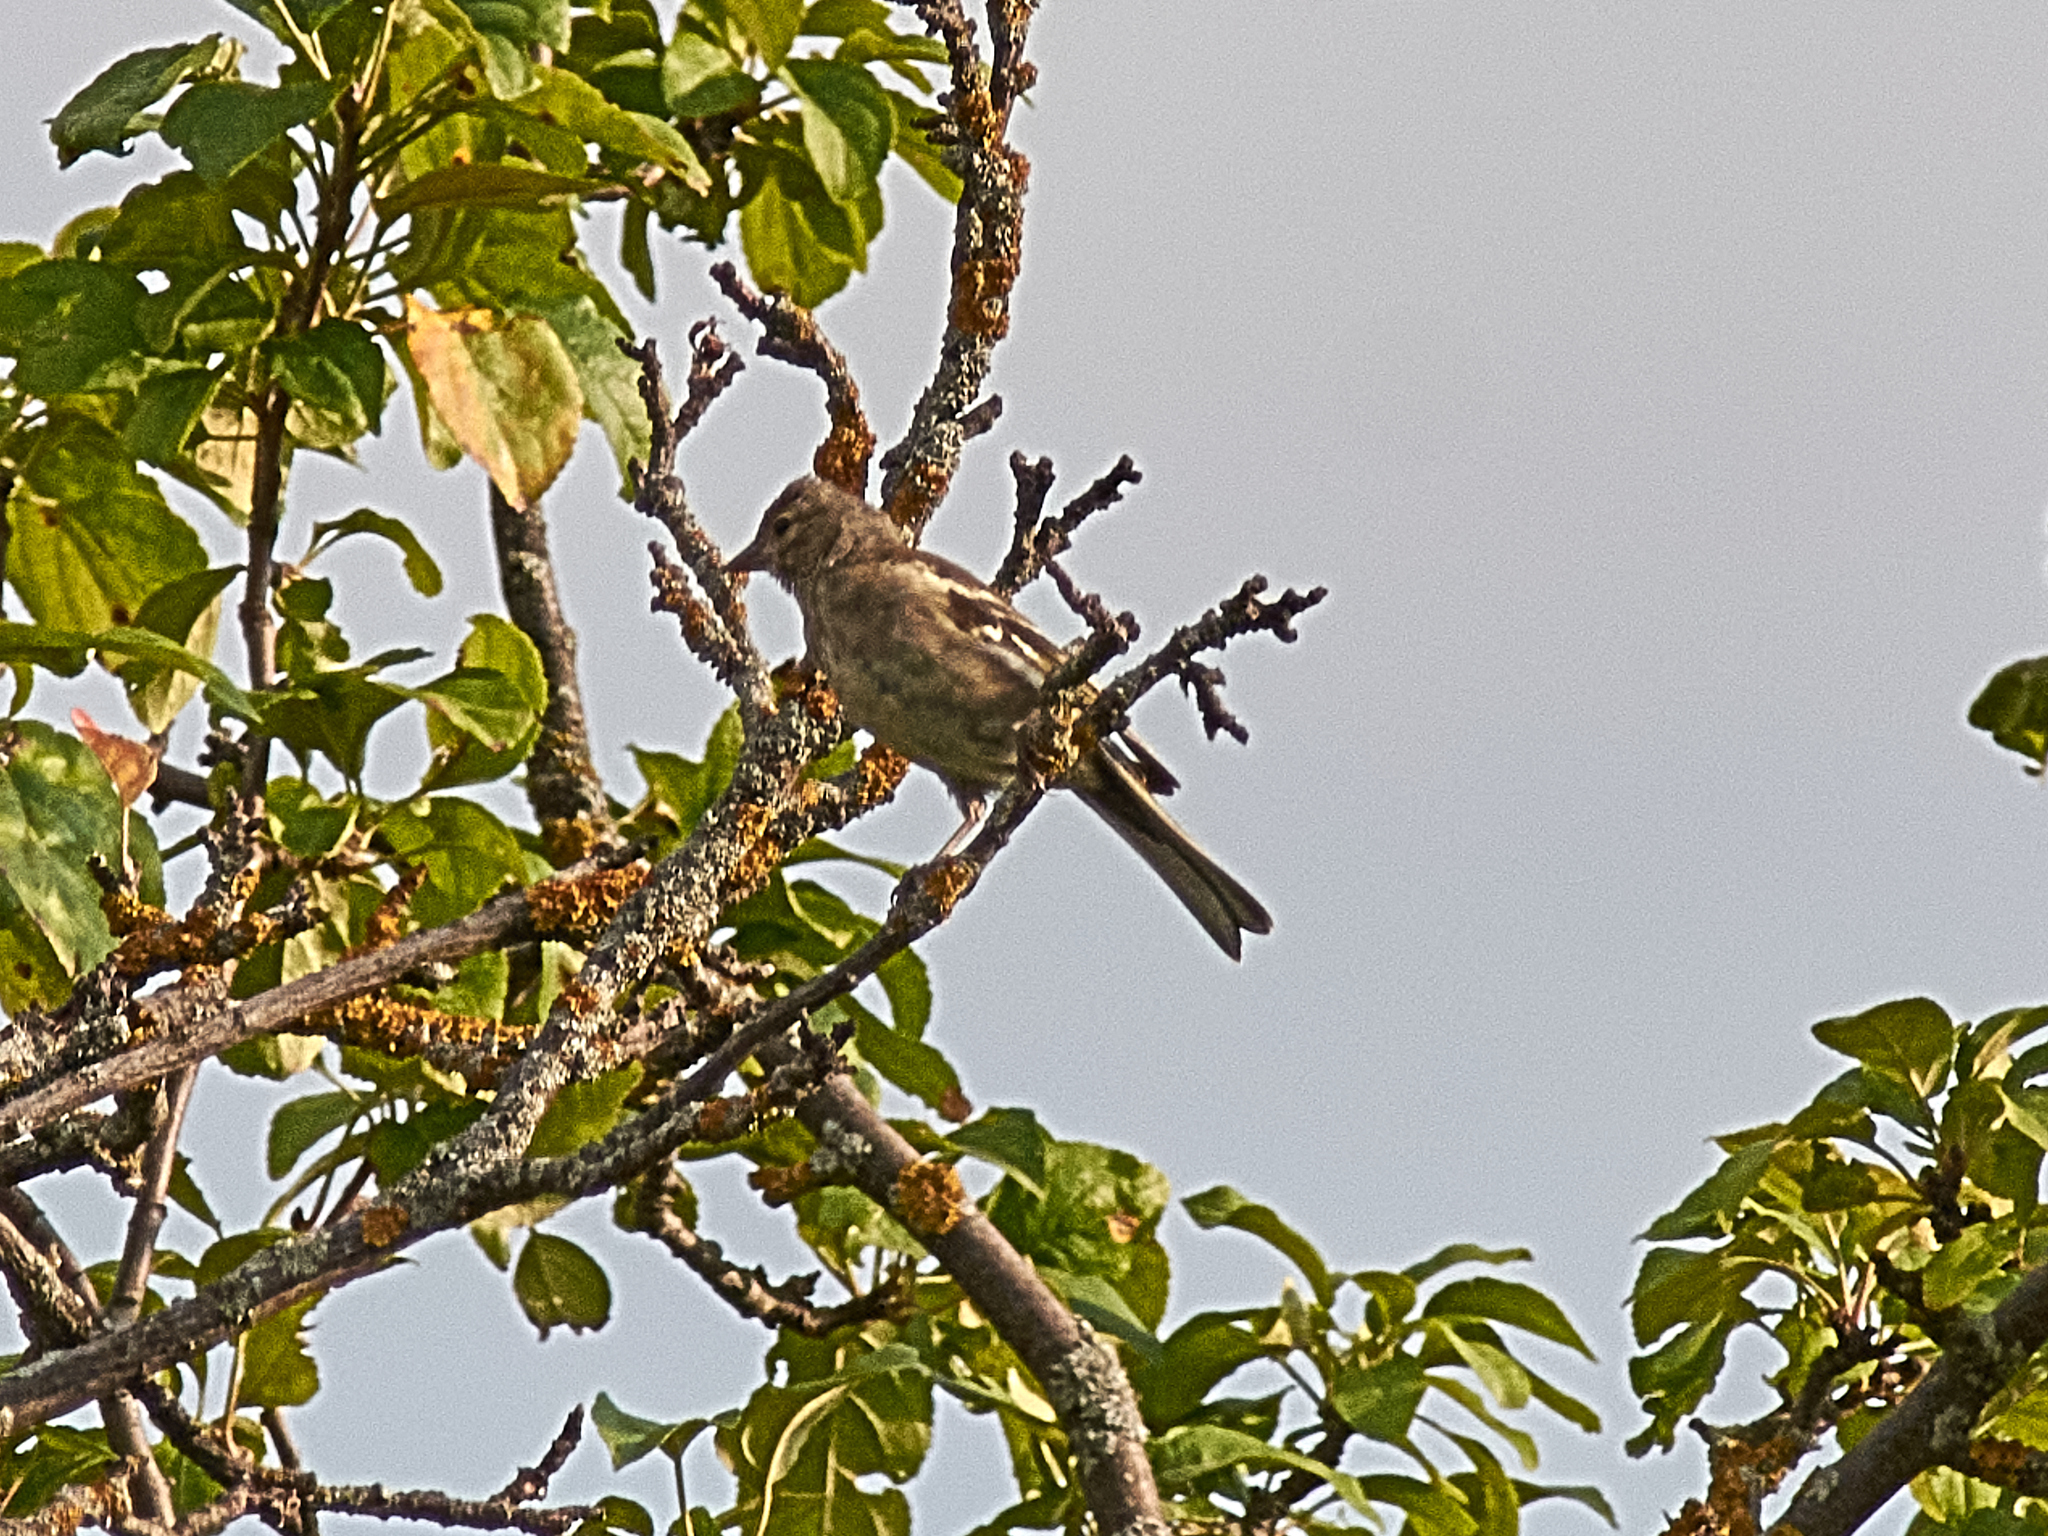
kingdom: Animalia
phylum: Chordata
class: Aves
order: Passeriformes
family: Fringillidae
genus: Fringilla
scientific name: Fringilla coelebs
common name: Common chaffinch
